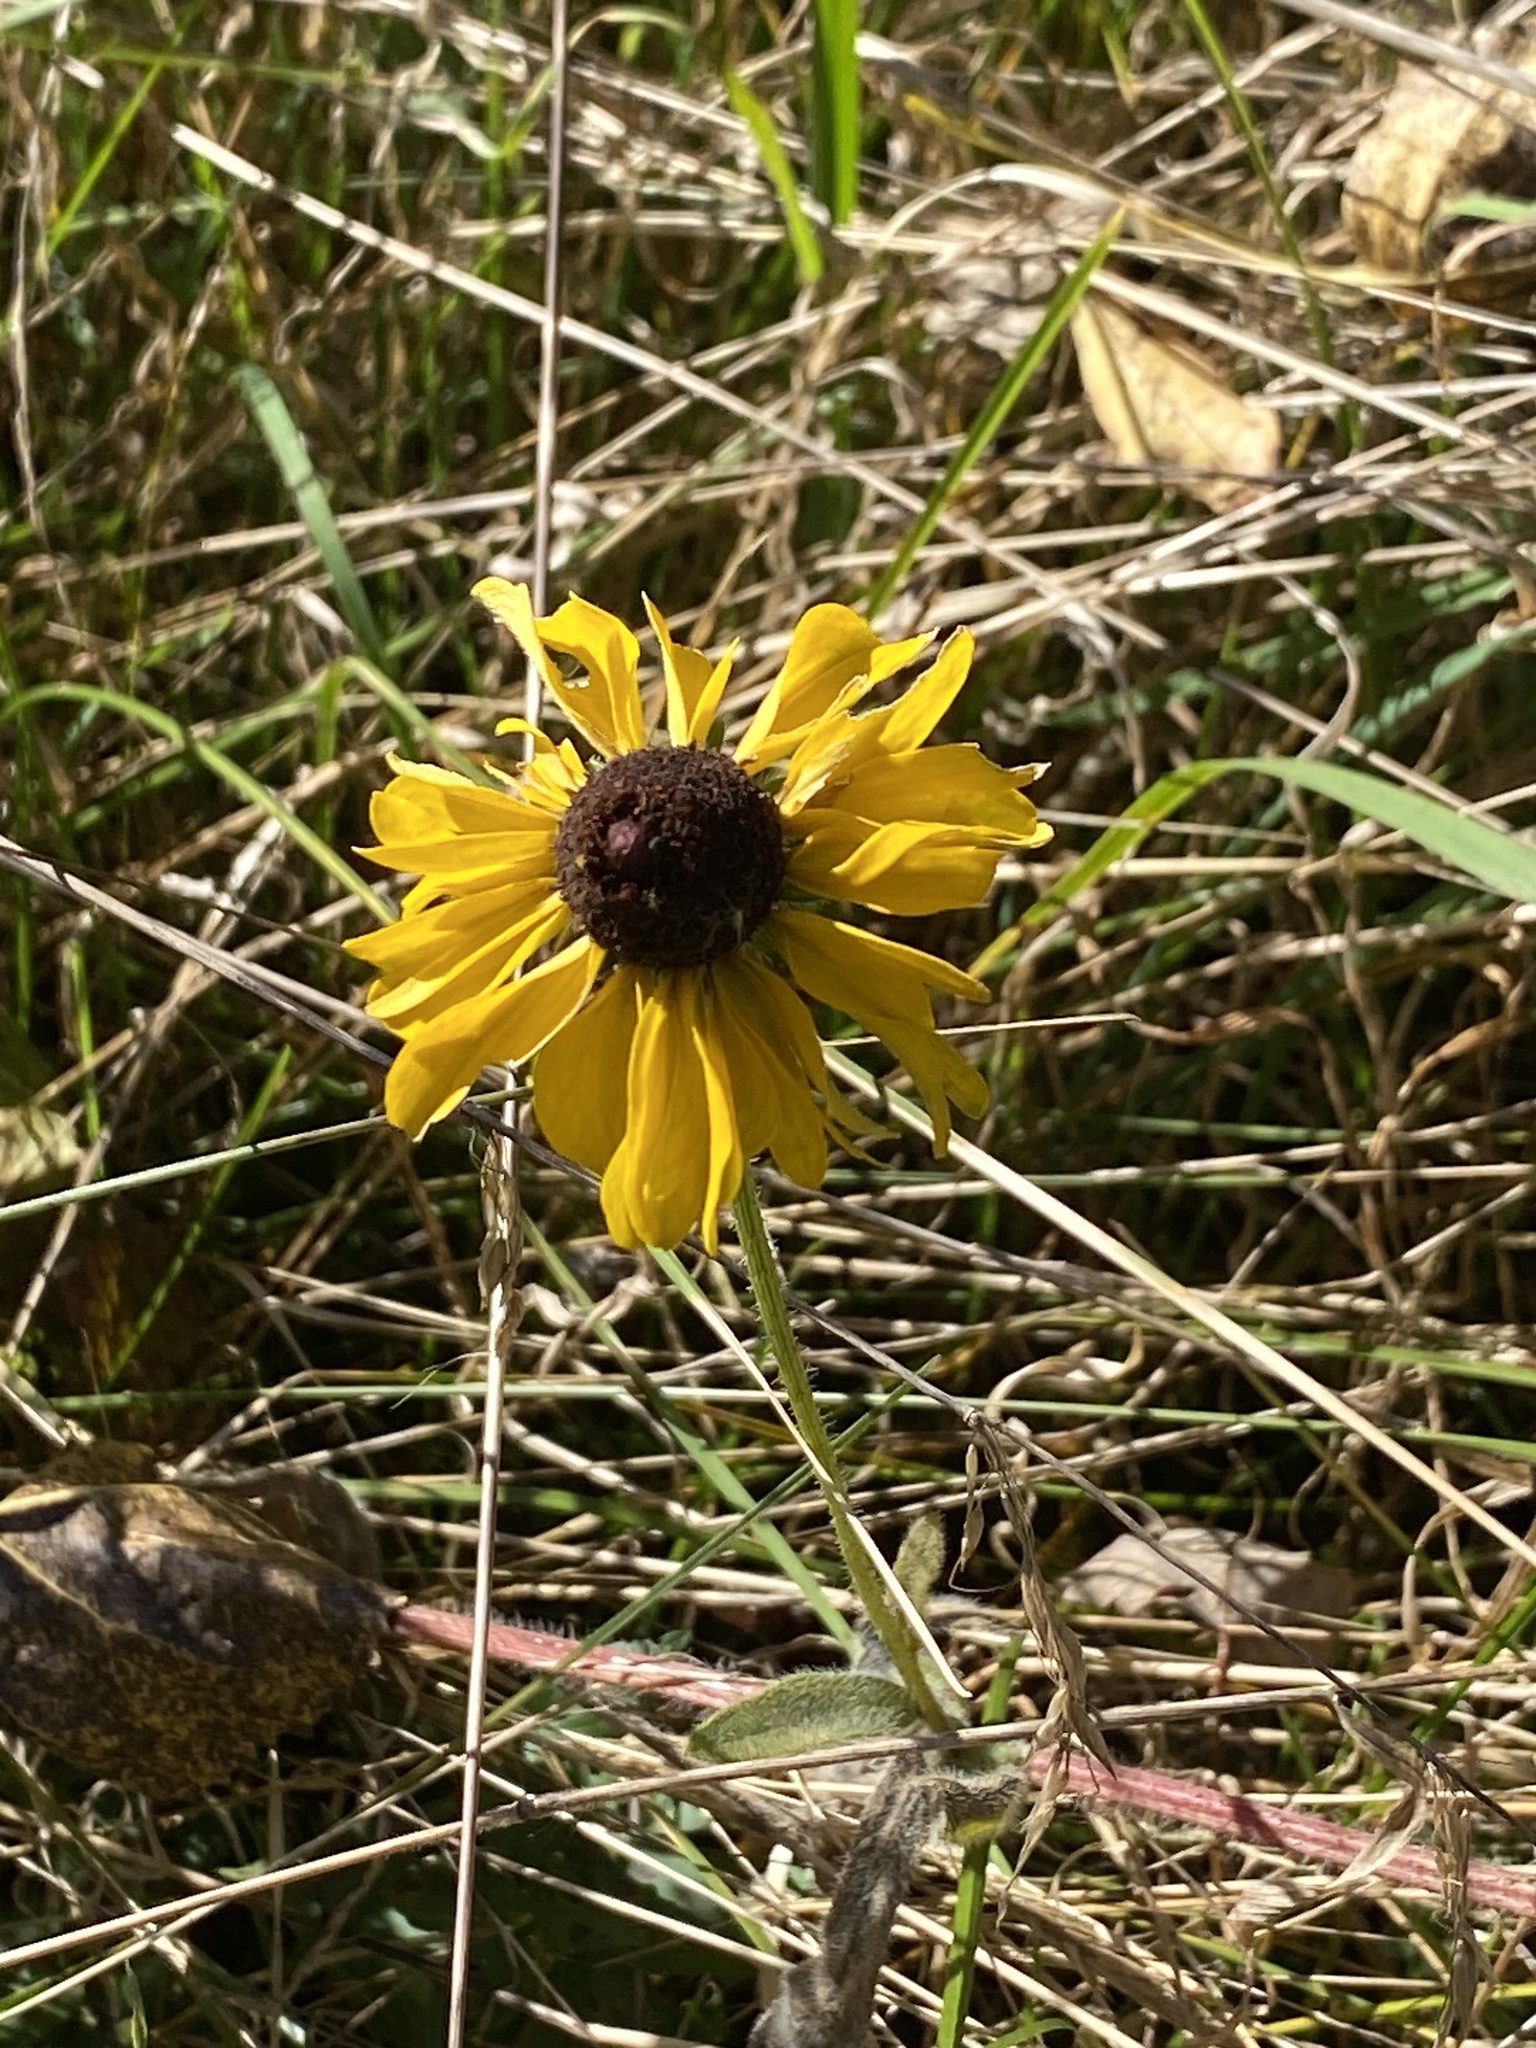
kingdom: Plantae
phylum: Tracheophyta
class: Magnoliopsida
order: Asterales
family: Asteraceae
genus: Rudbeckia
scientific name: Rudbeckia hirta
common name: Black-eyed-susan
